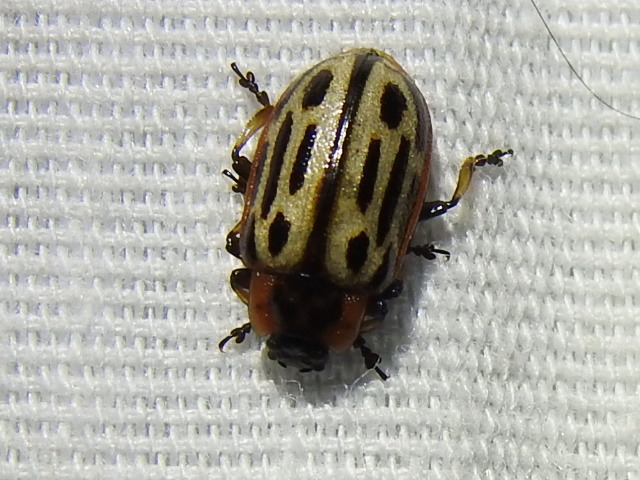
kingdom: Animalia
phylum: Arthropoda
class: Insecta
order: Coleoptera
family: Chrysomelidae
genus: Aethiopocassis
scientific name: Aethiopocassis scripta
